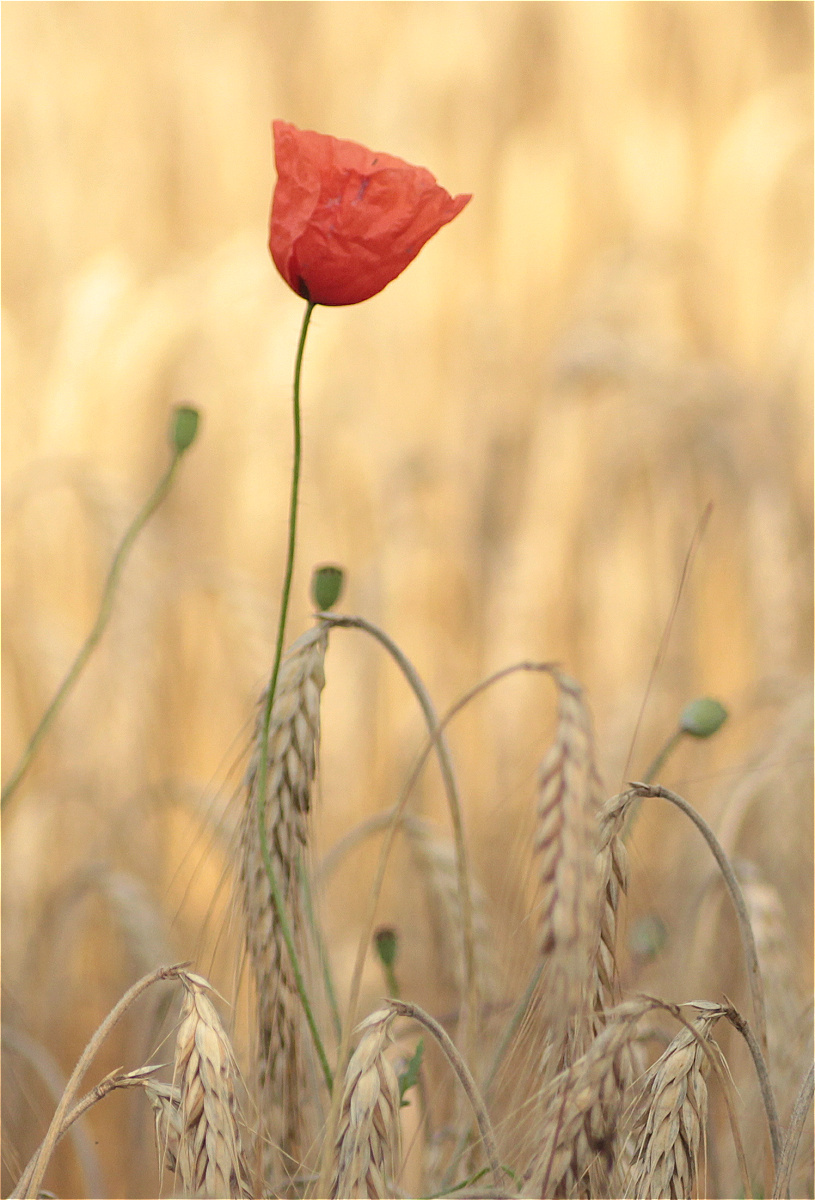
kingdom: Plantae
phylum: Tracheophyta
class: Magnoliopsida
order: Ranunculales
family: Papaveraceae
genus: Papaver
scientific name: Papaver rhoeas
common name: Corn poppy
